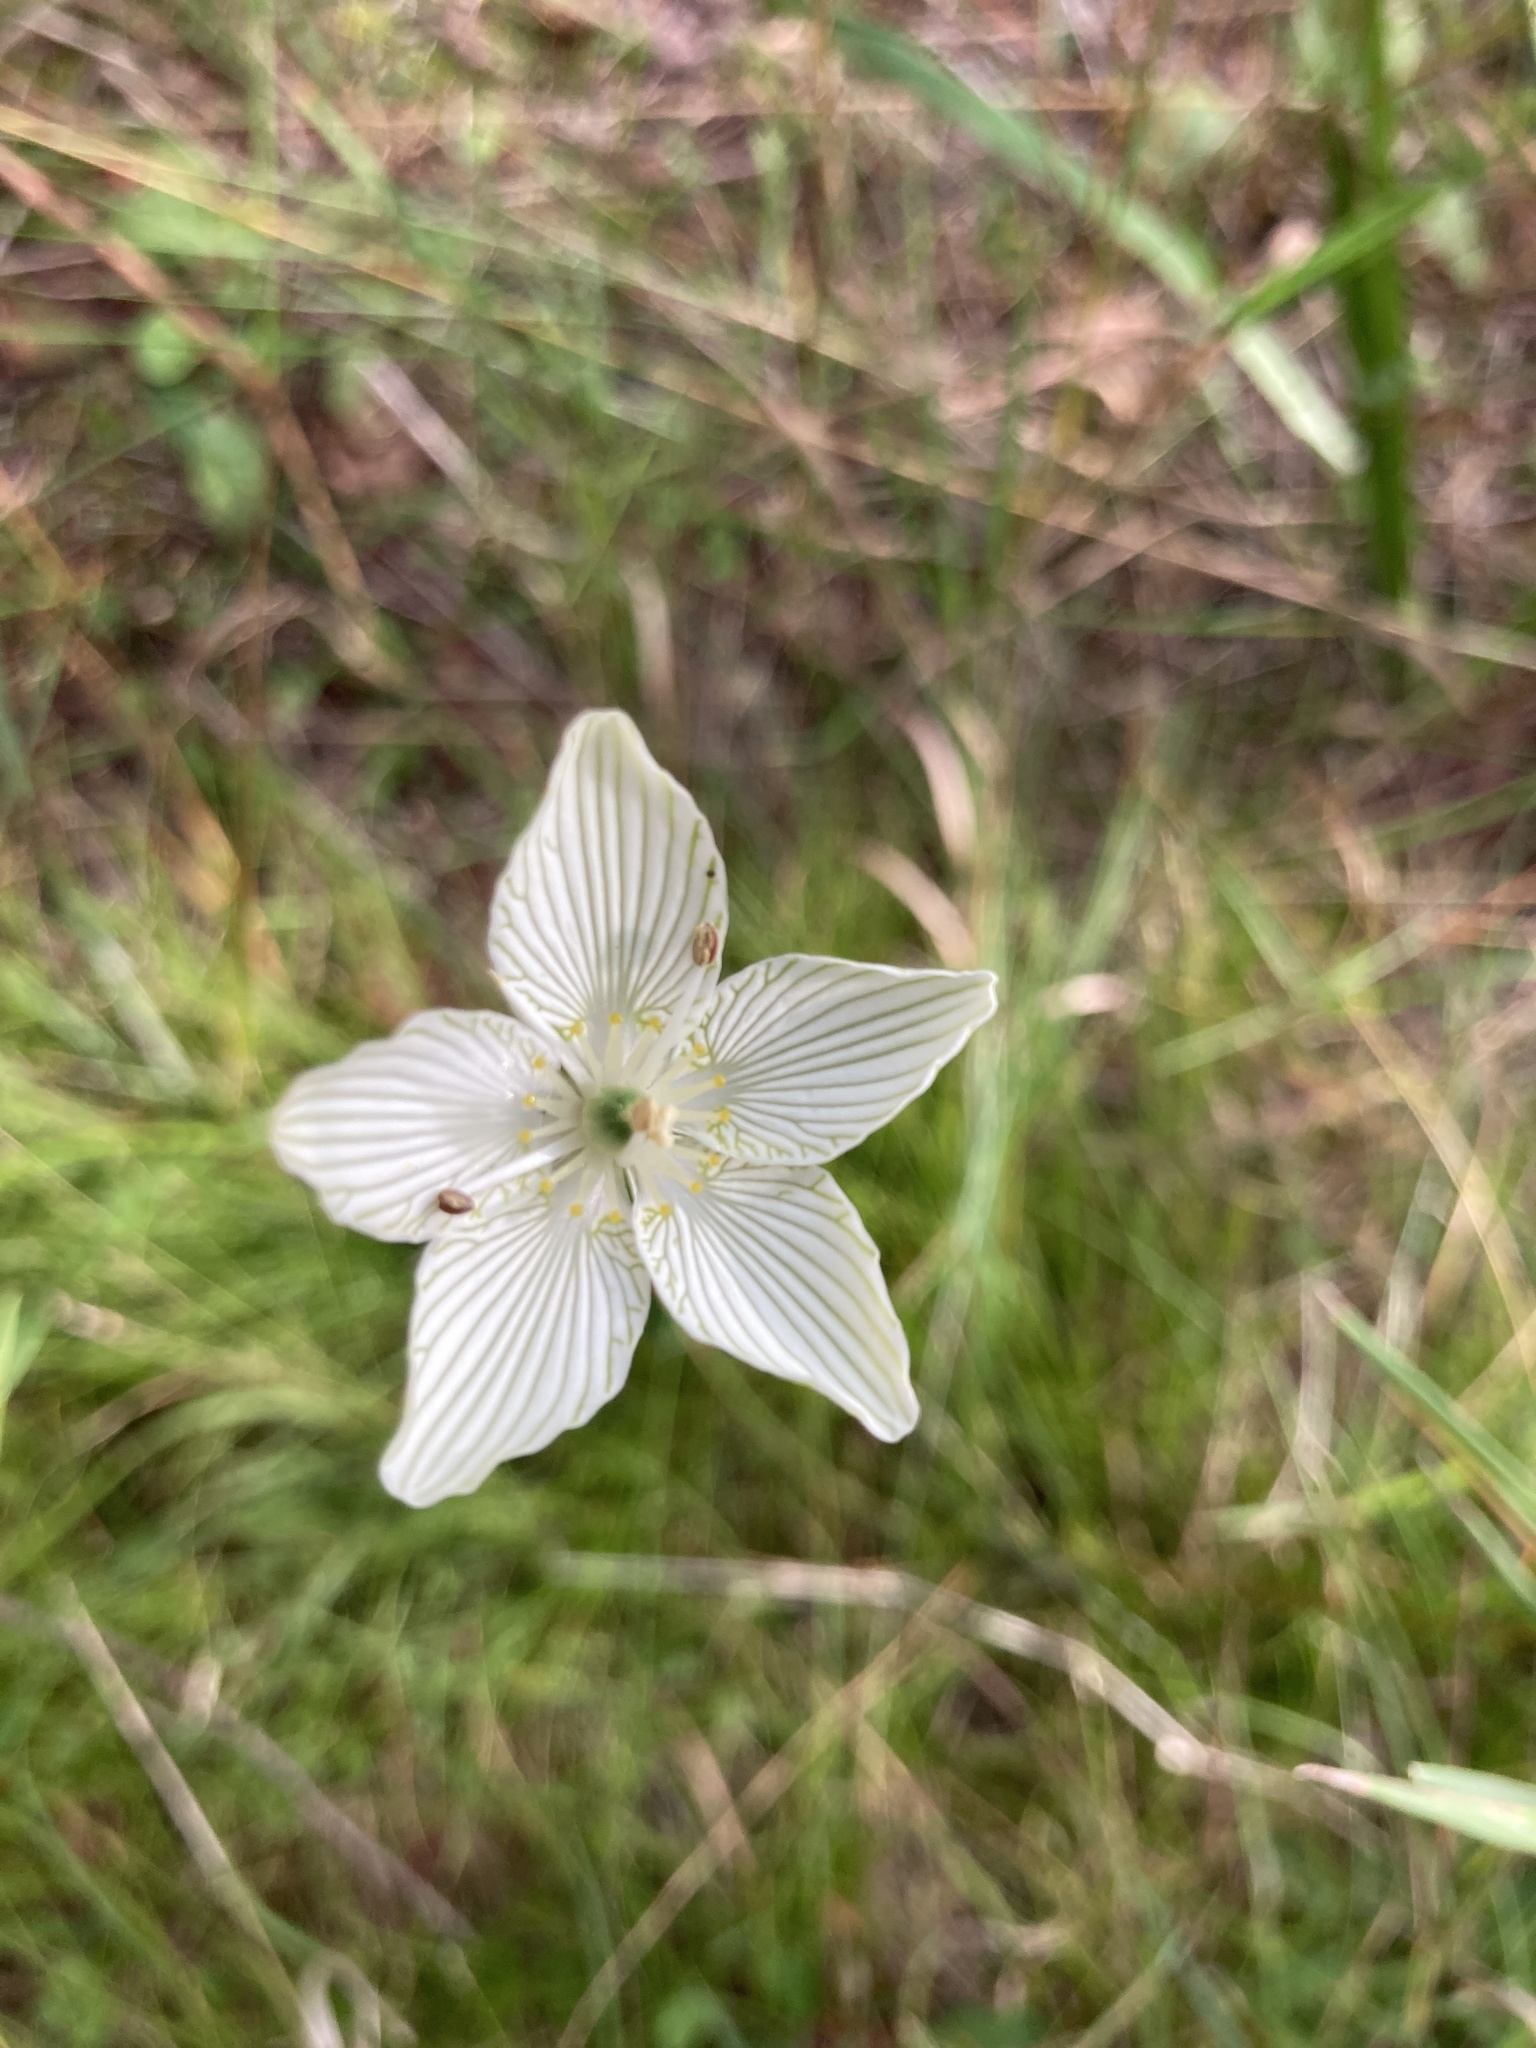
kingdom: Plantae
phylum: Tracheophyta
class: Magnoliopsida
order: Celastrales
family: Parnassiaceae
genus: Parnassia
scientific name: Parnassia glauca
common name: American grass-of-parnassus
